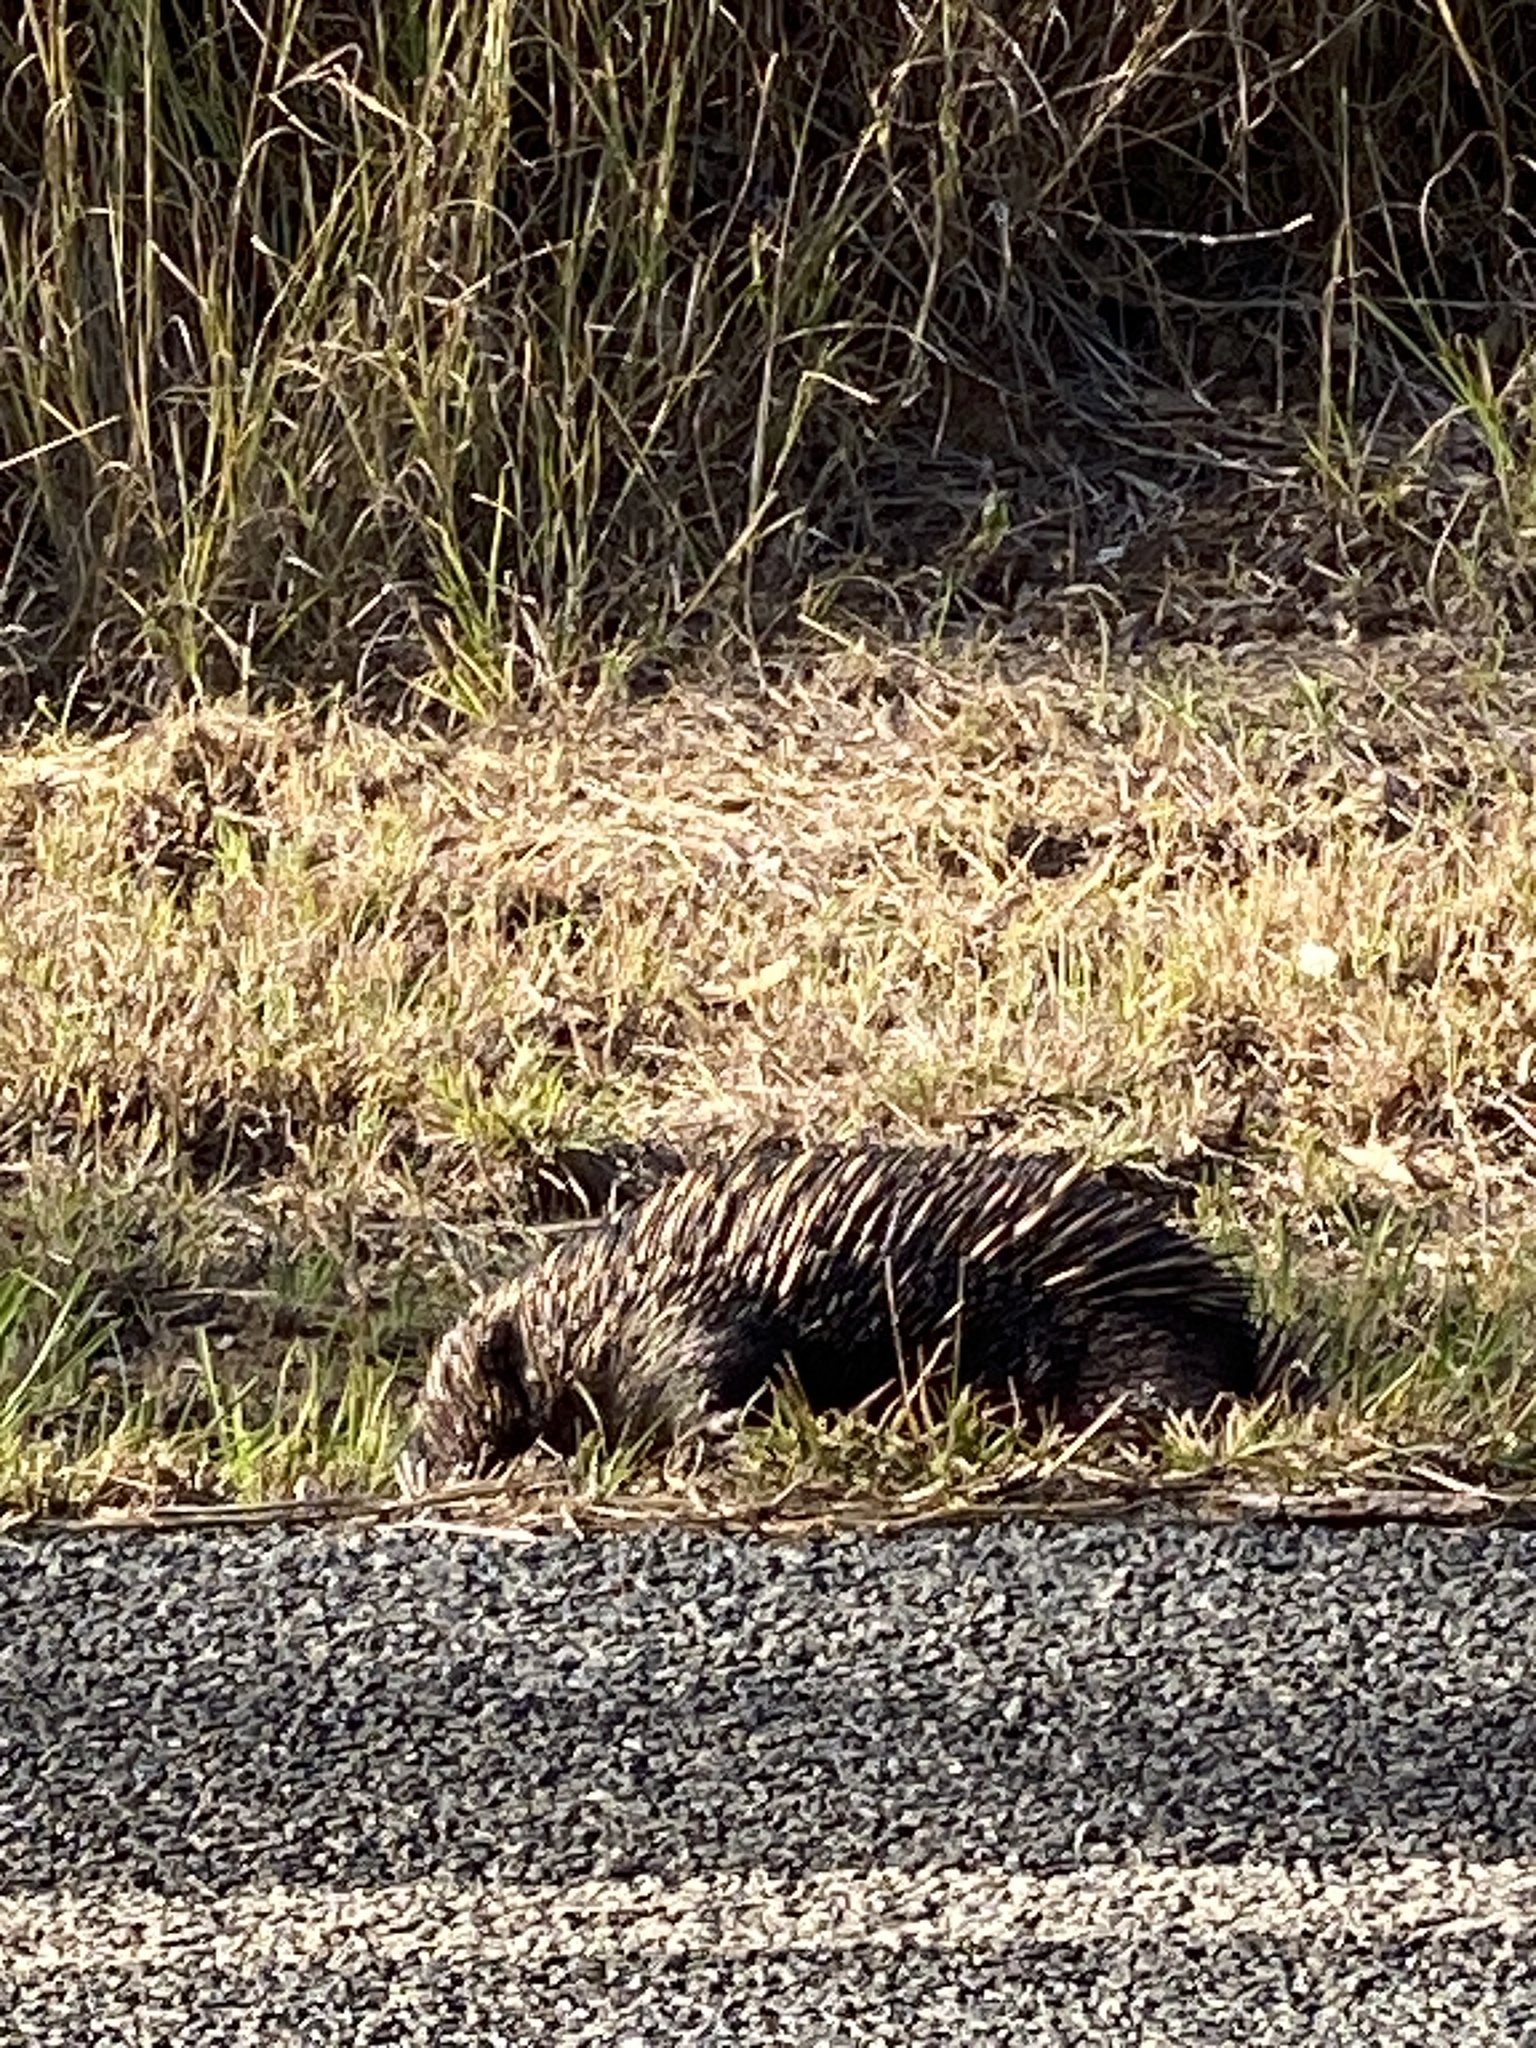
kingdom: Animalia
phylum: Chordata
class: Mammalia
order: Monotremata
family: Tachyglossidae
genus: Tachyglossus
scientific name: Tachyglossus aculeatus
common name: Short-beaked echidna
